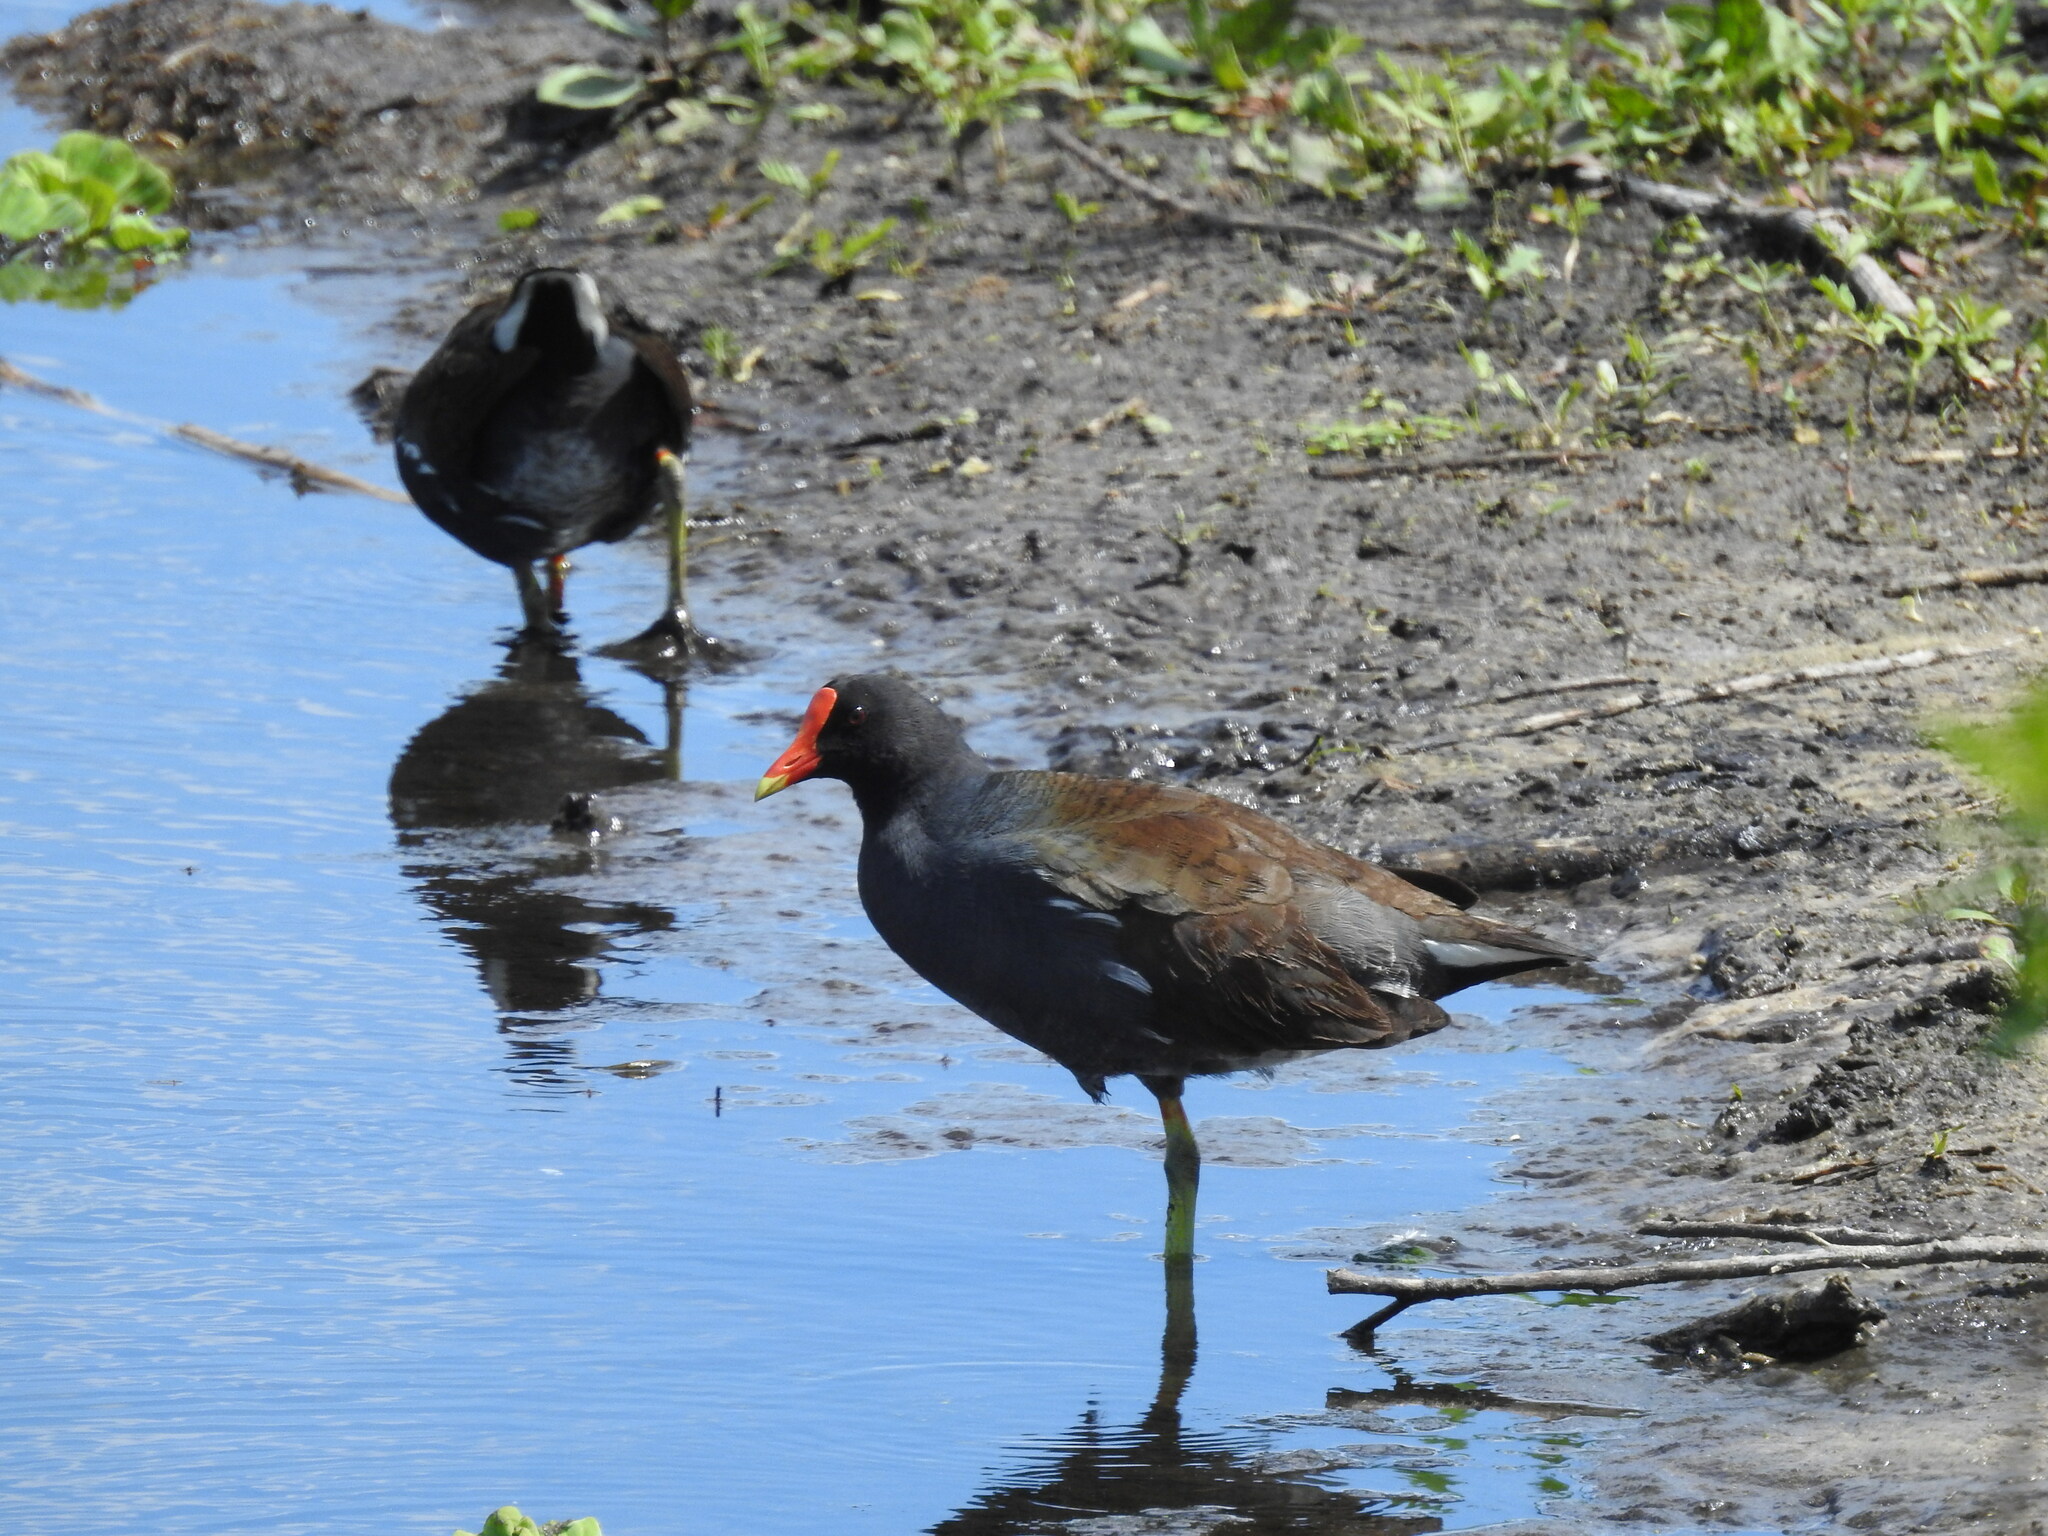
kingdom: Animalia
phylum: Chordata
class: Aves
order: Gruiformes
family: Rallidae
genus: Gallinula
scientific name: Gallinula chloropus
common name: Common moorhen
